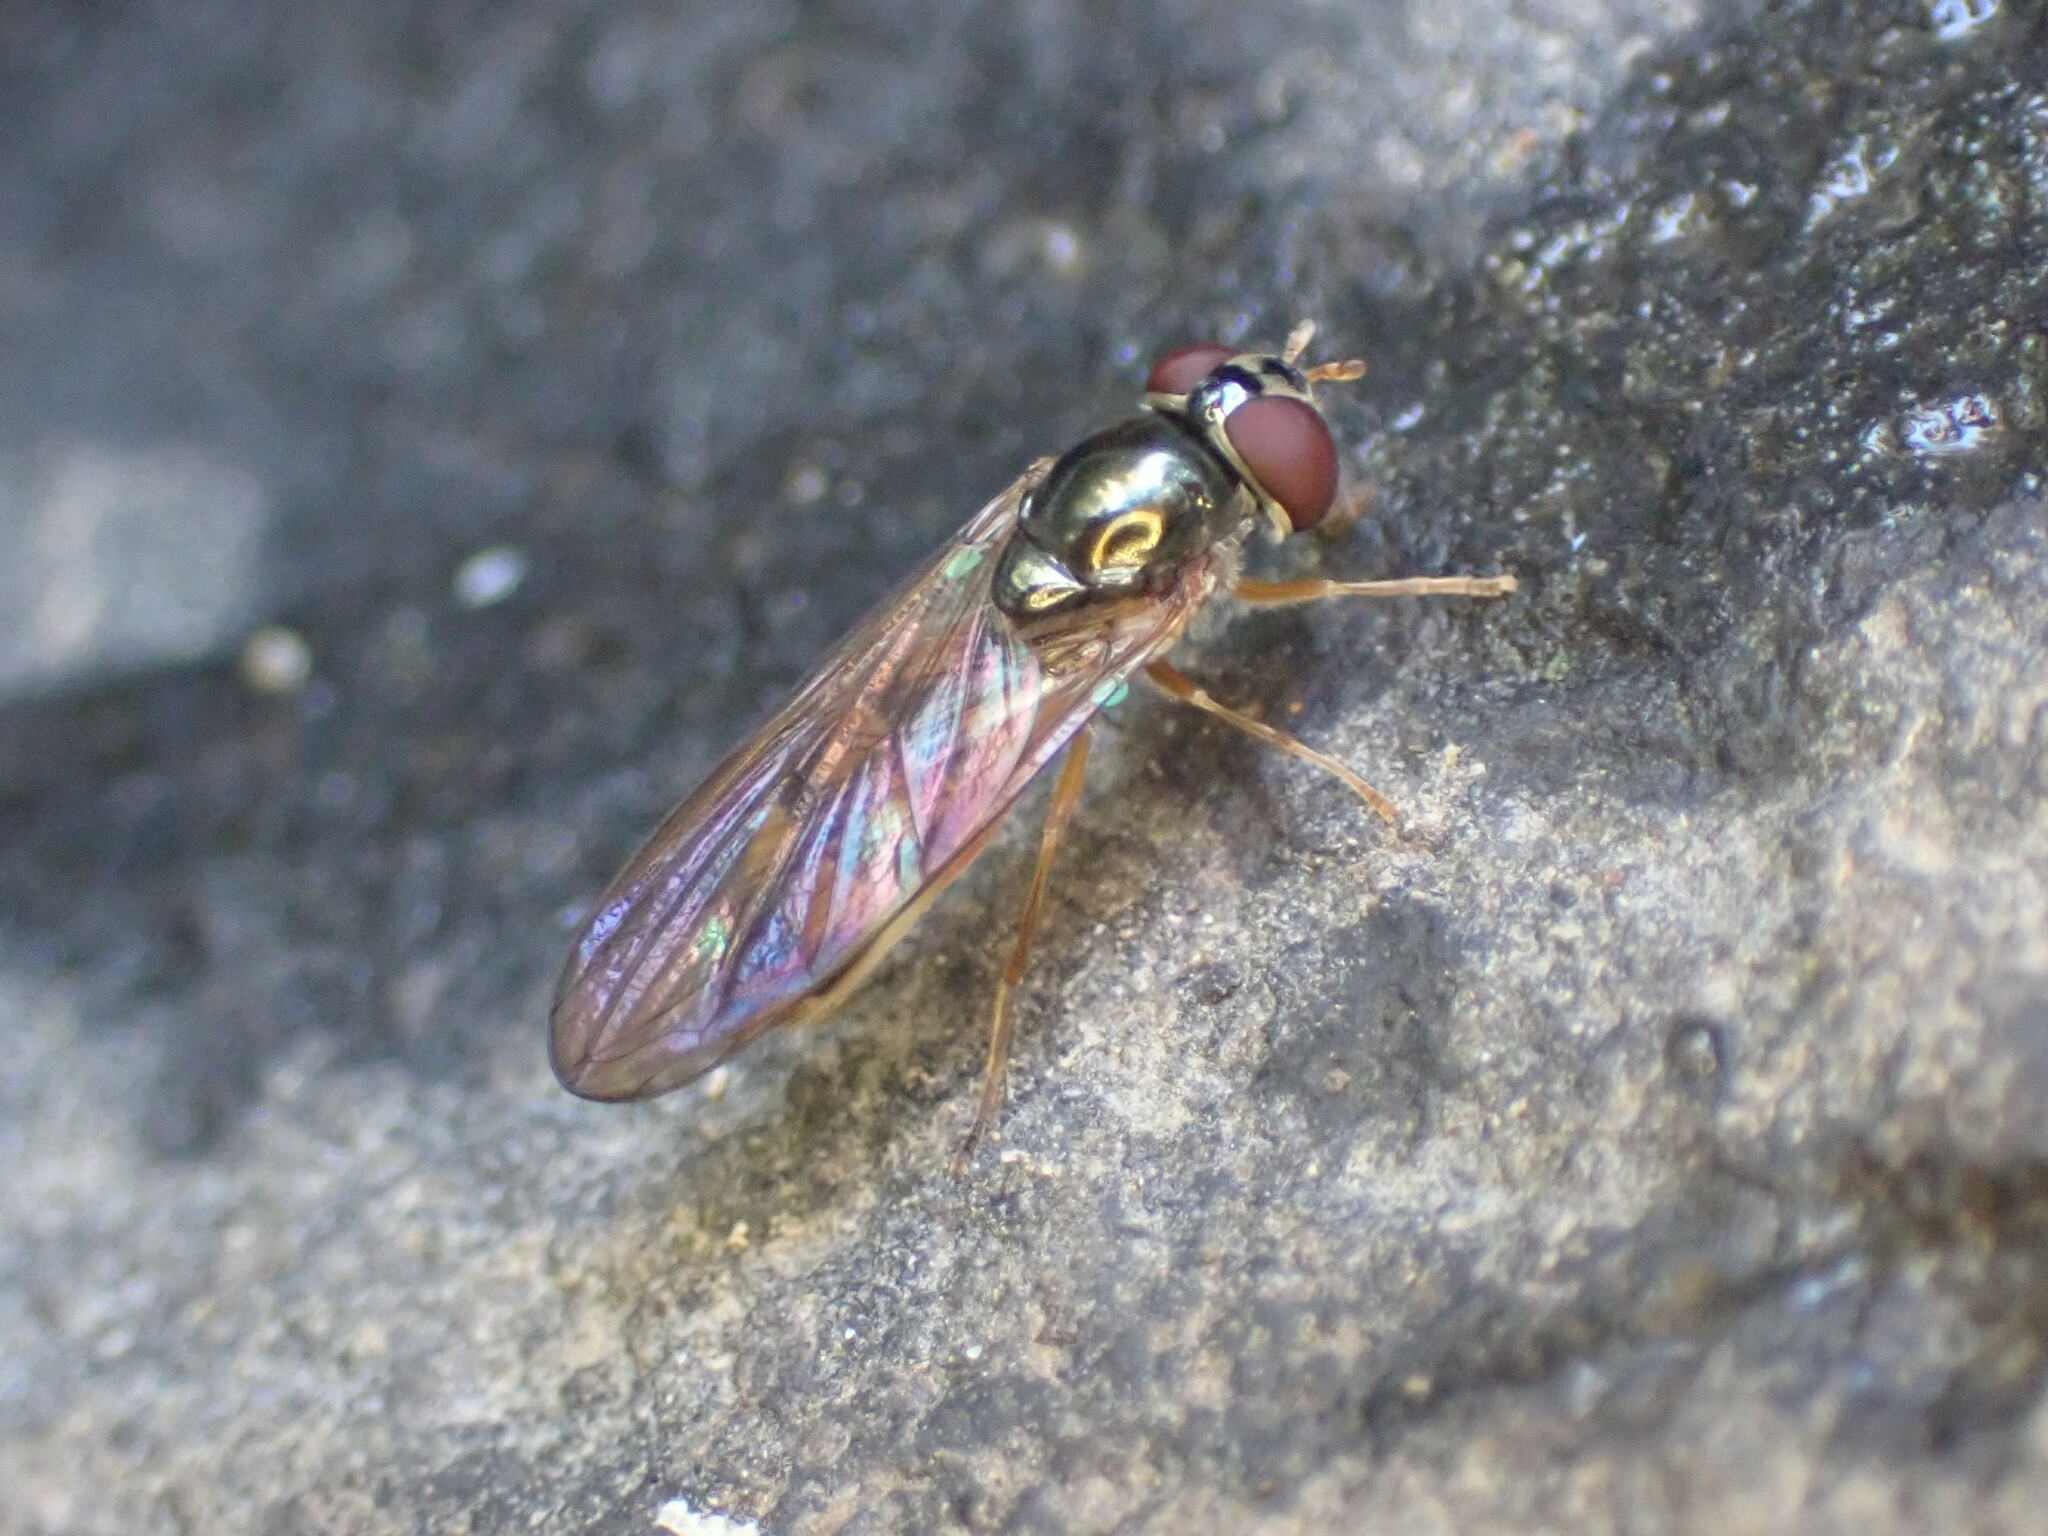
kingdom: Animalia
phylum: Arthropoda
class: Insecta
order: Diptera
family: Syrphidae
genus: Melanostoma
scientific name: Melanostoma mellina
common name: Hover fly
